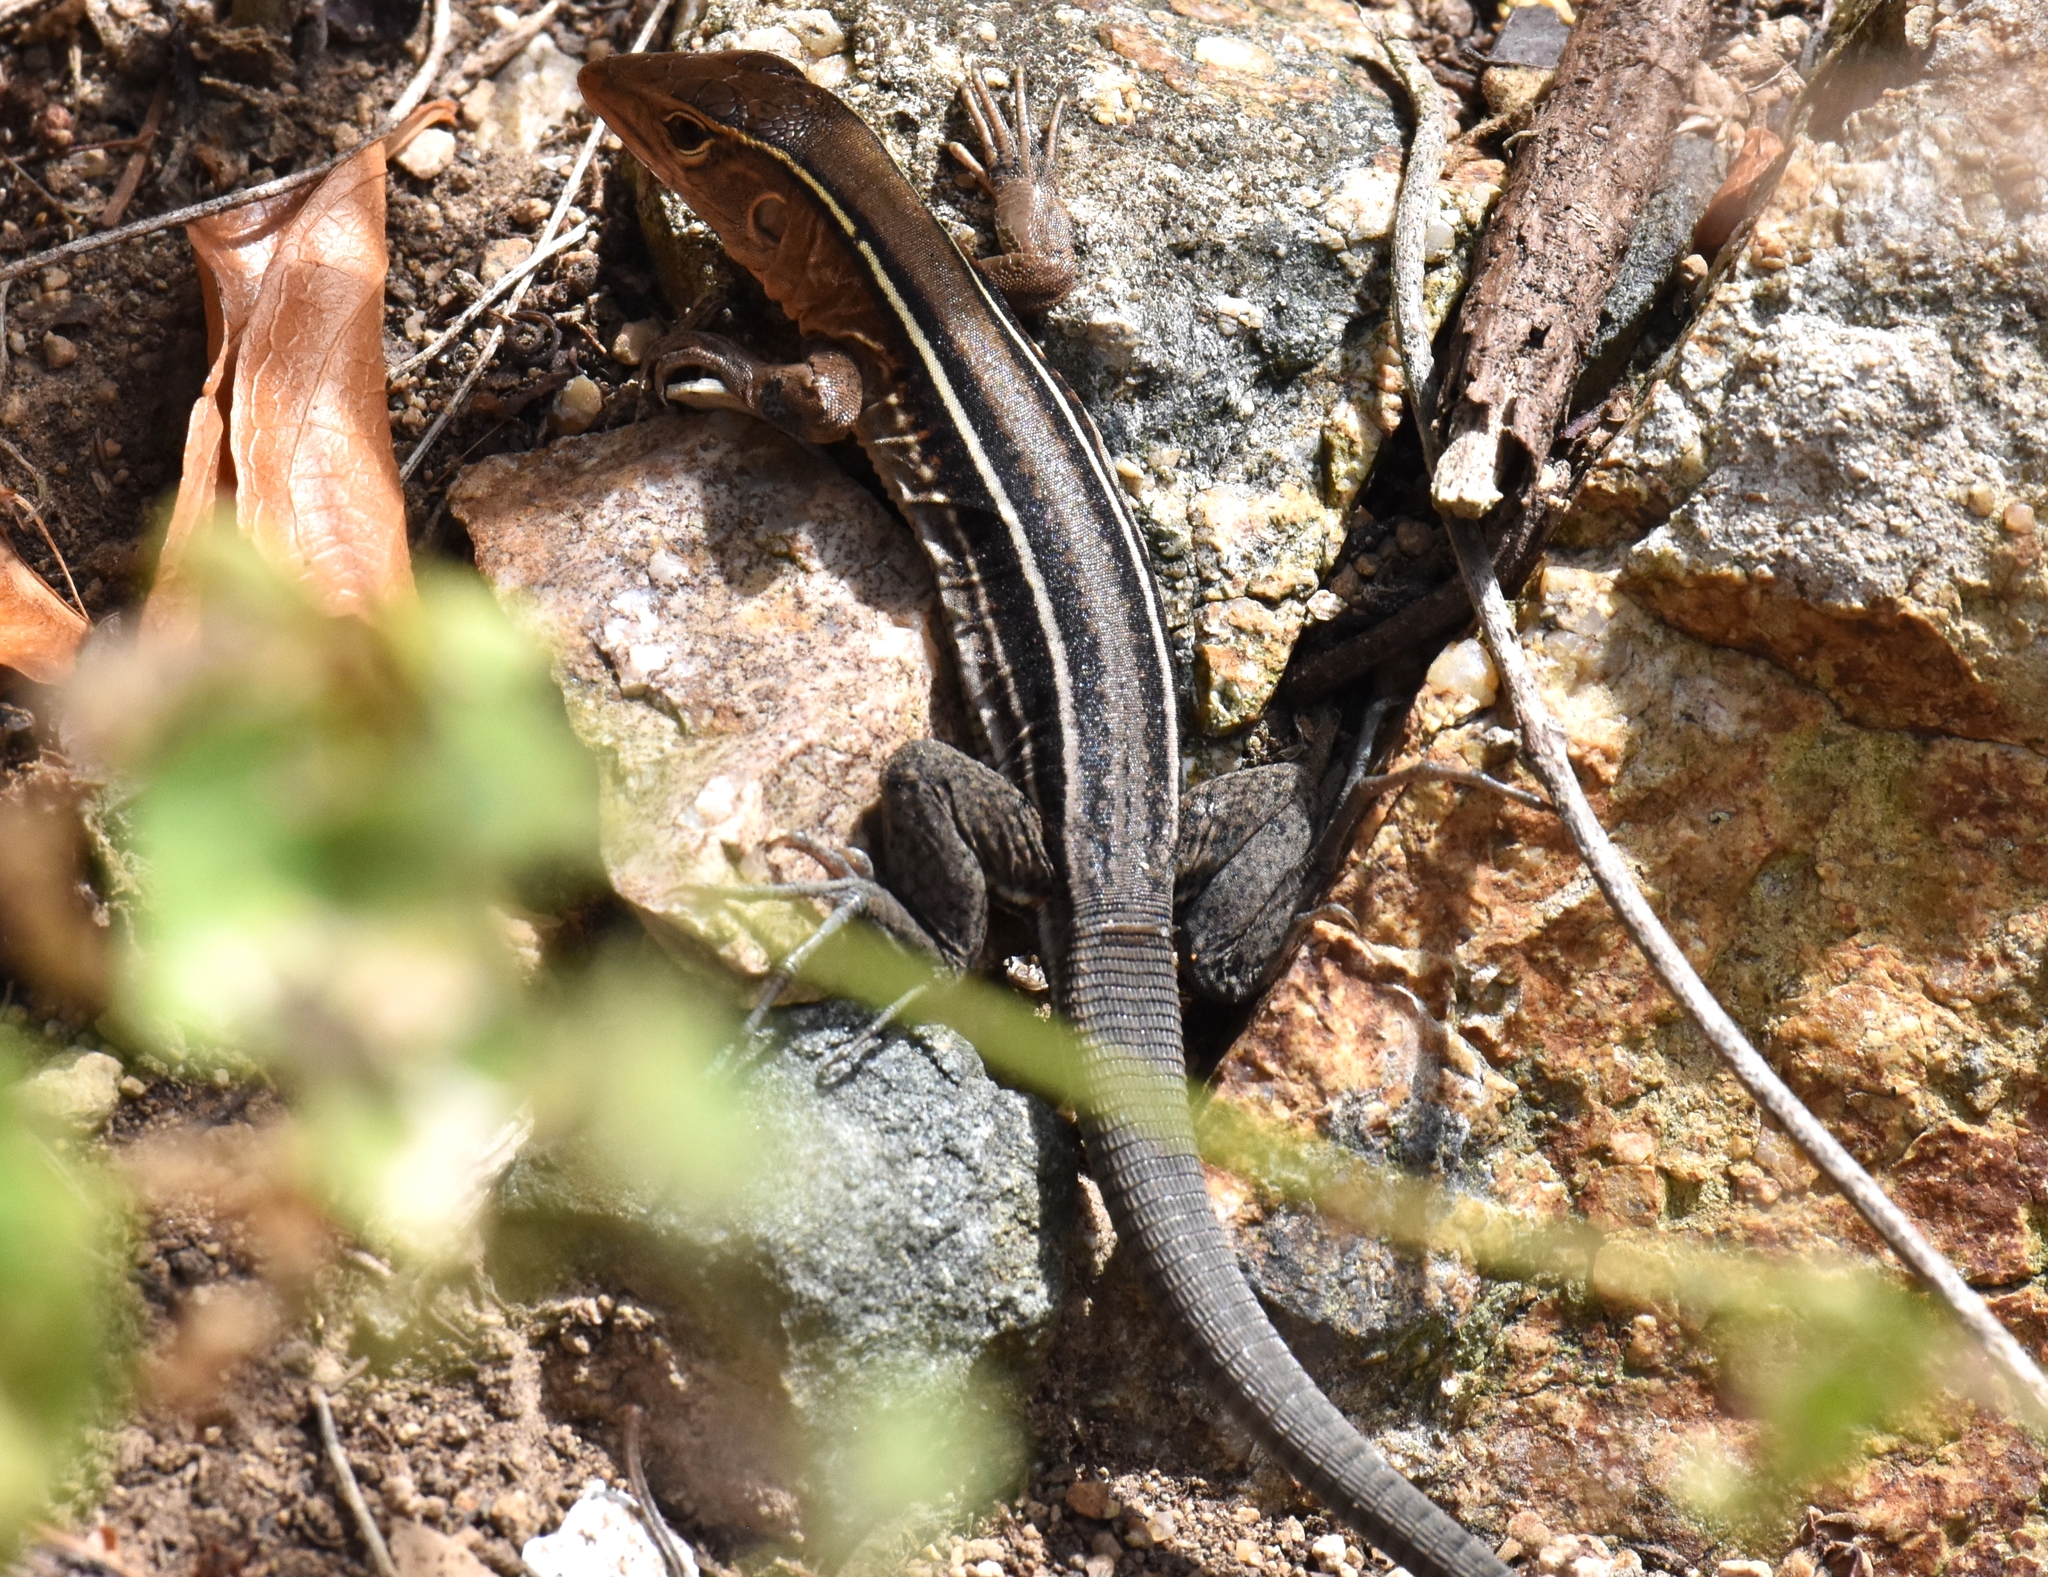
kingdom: Animalia
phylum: Chordata
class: Squamata
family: Teiidae
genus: Pholidoscelis
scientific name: Pholidoscelis exsul
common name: Common puerto rican ameiva
